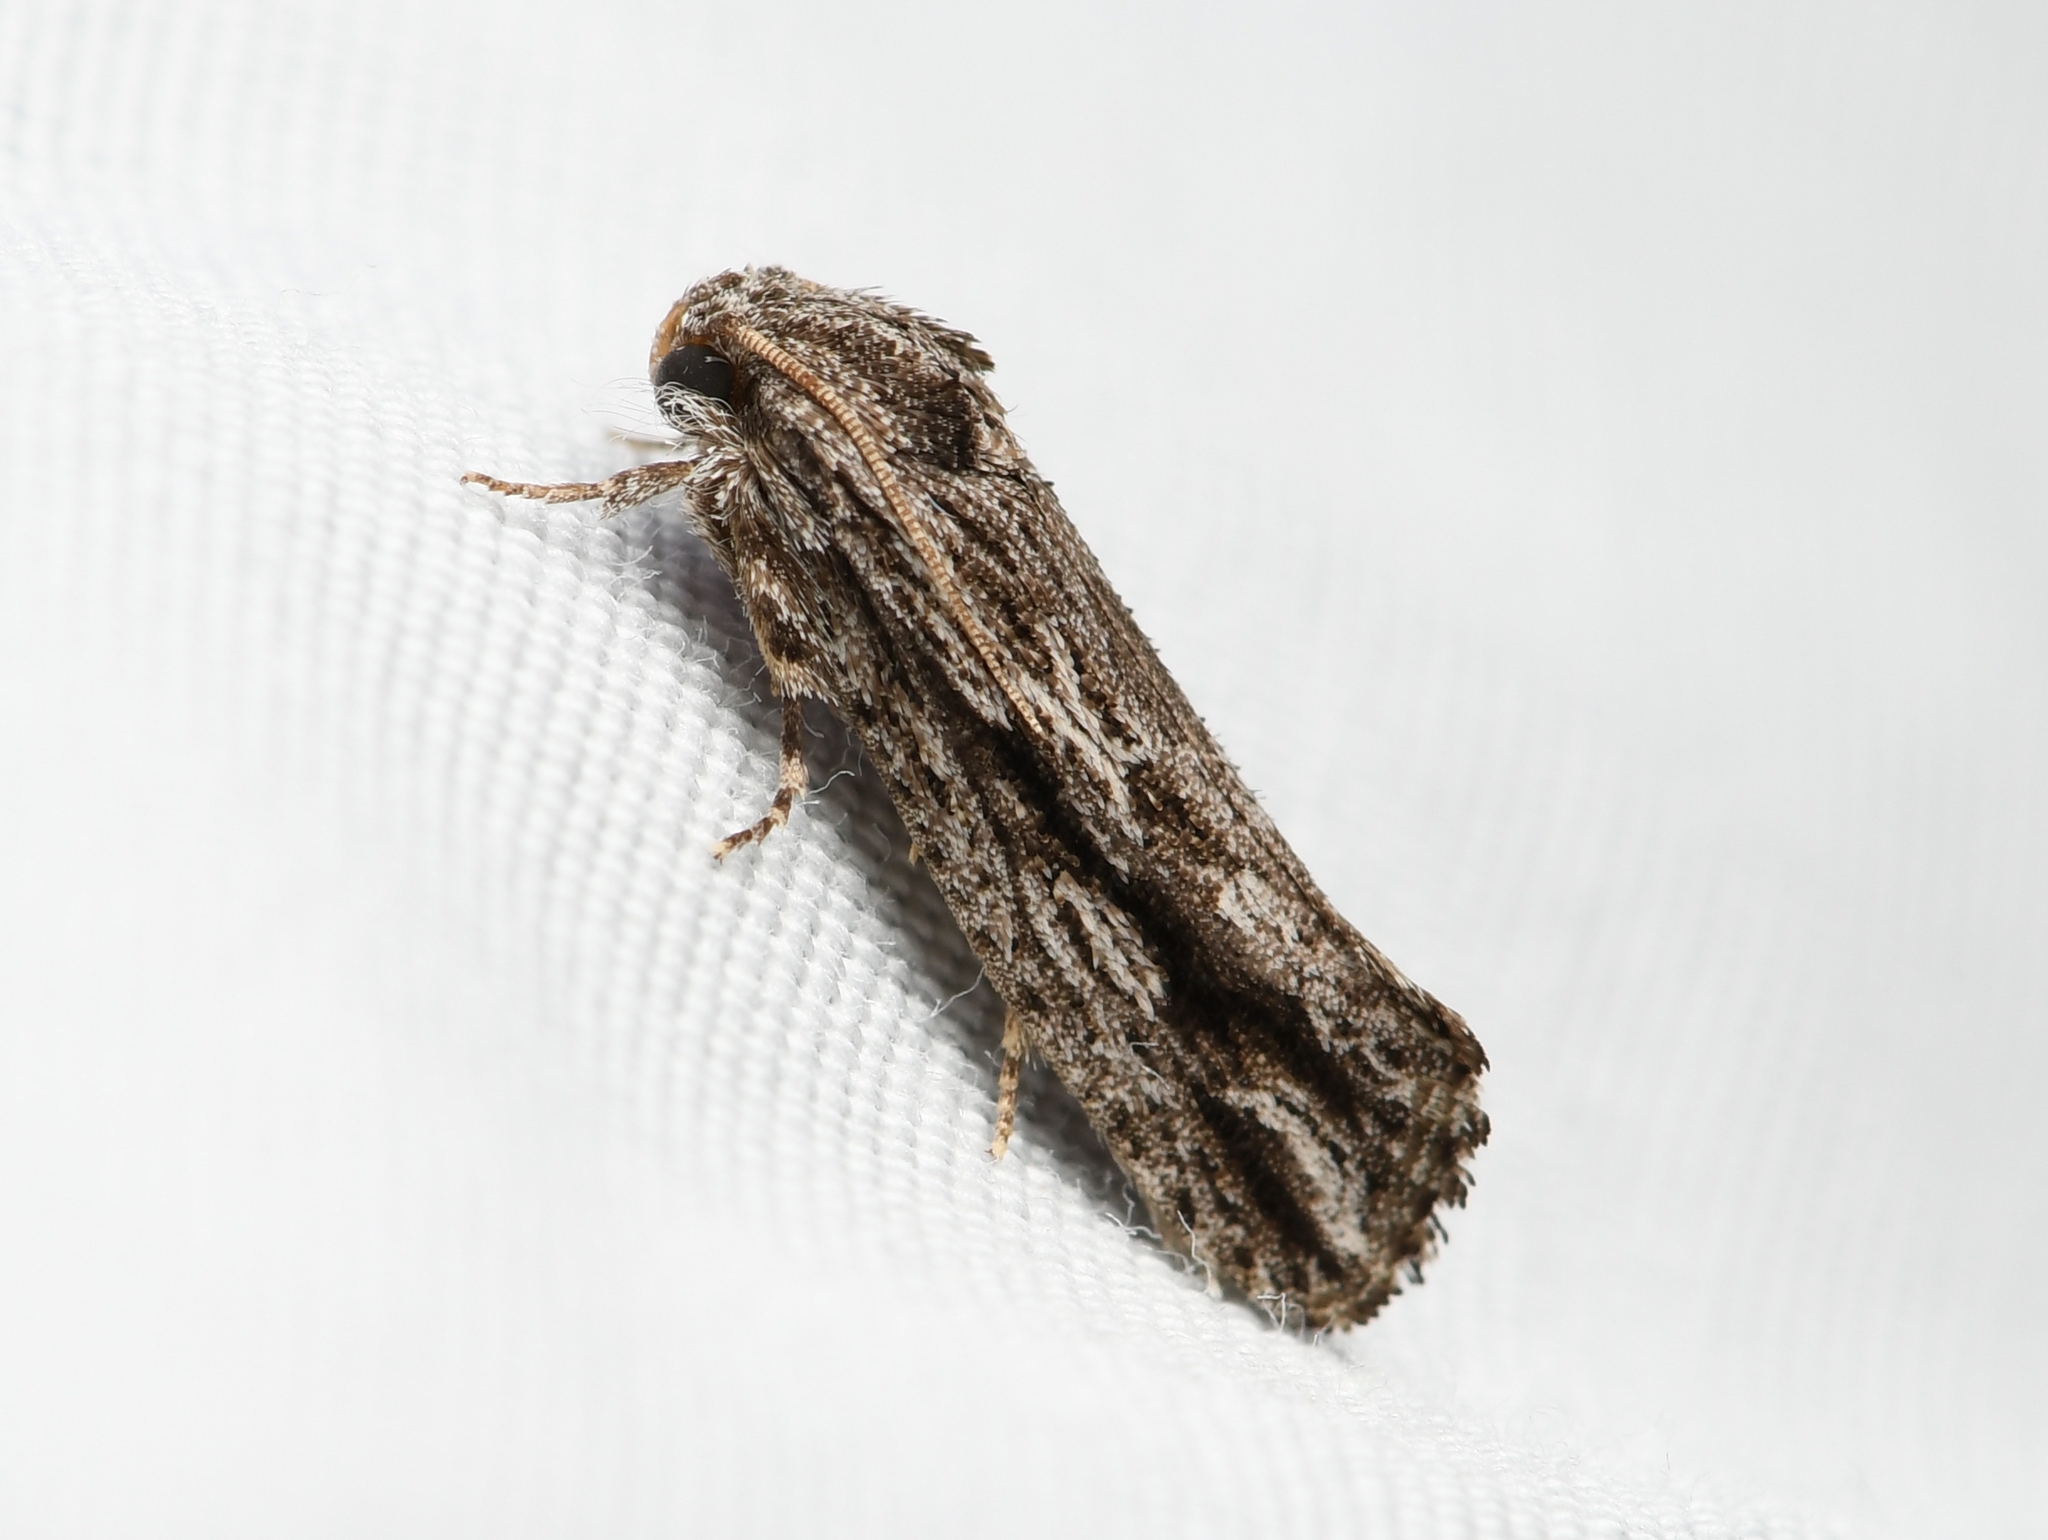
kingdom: Animalia
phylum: Arthropoda
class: Insecta
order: Lepidoptera
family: Tineidae
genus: Acrolophus
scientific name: Acrolophus furcatus
